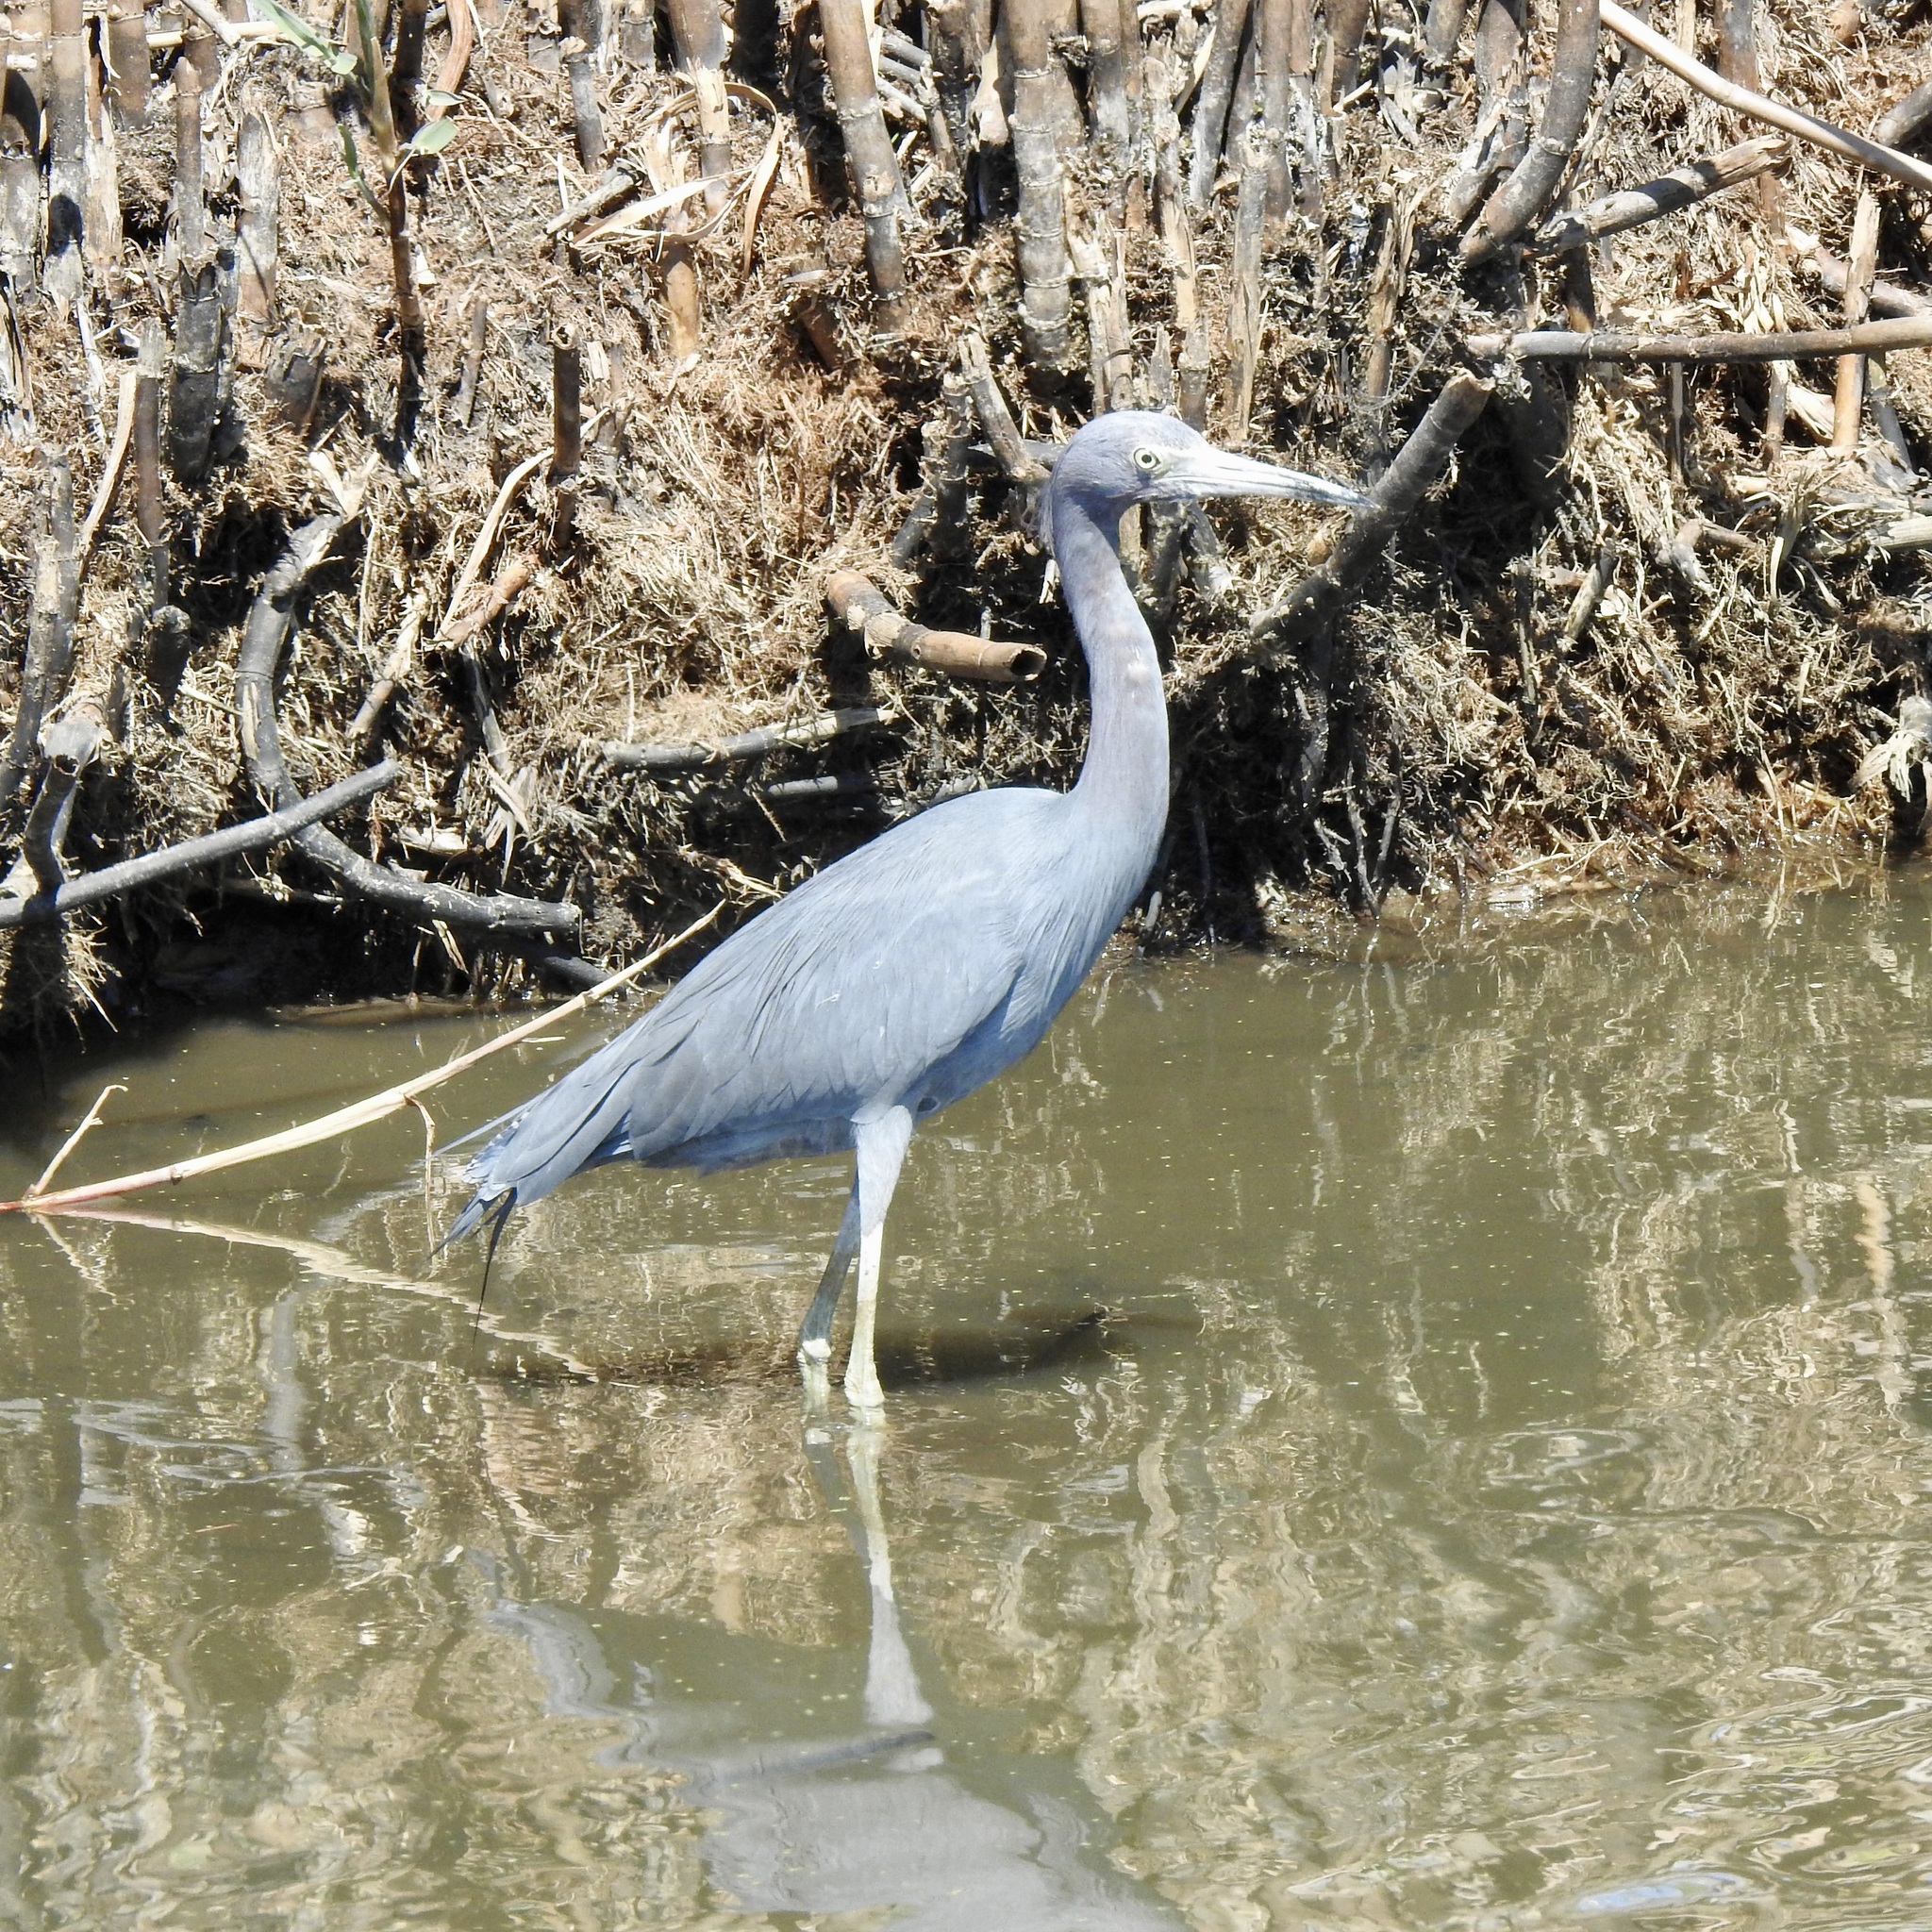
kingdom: Animalia
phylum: Chordata
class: Aves
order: Pelecaniformes
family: Ardeidae
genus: Egretta
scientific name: Egretta caerulea
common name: Little blue heron
